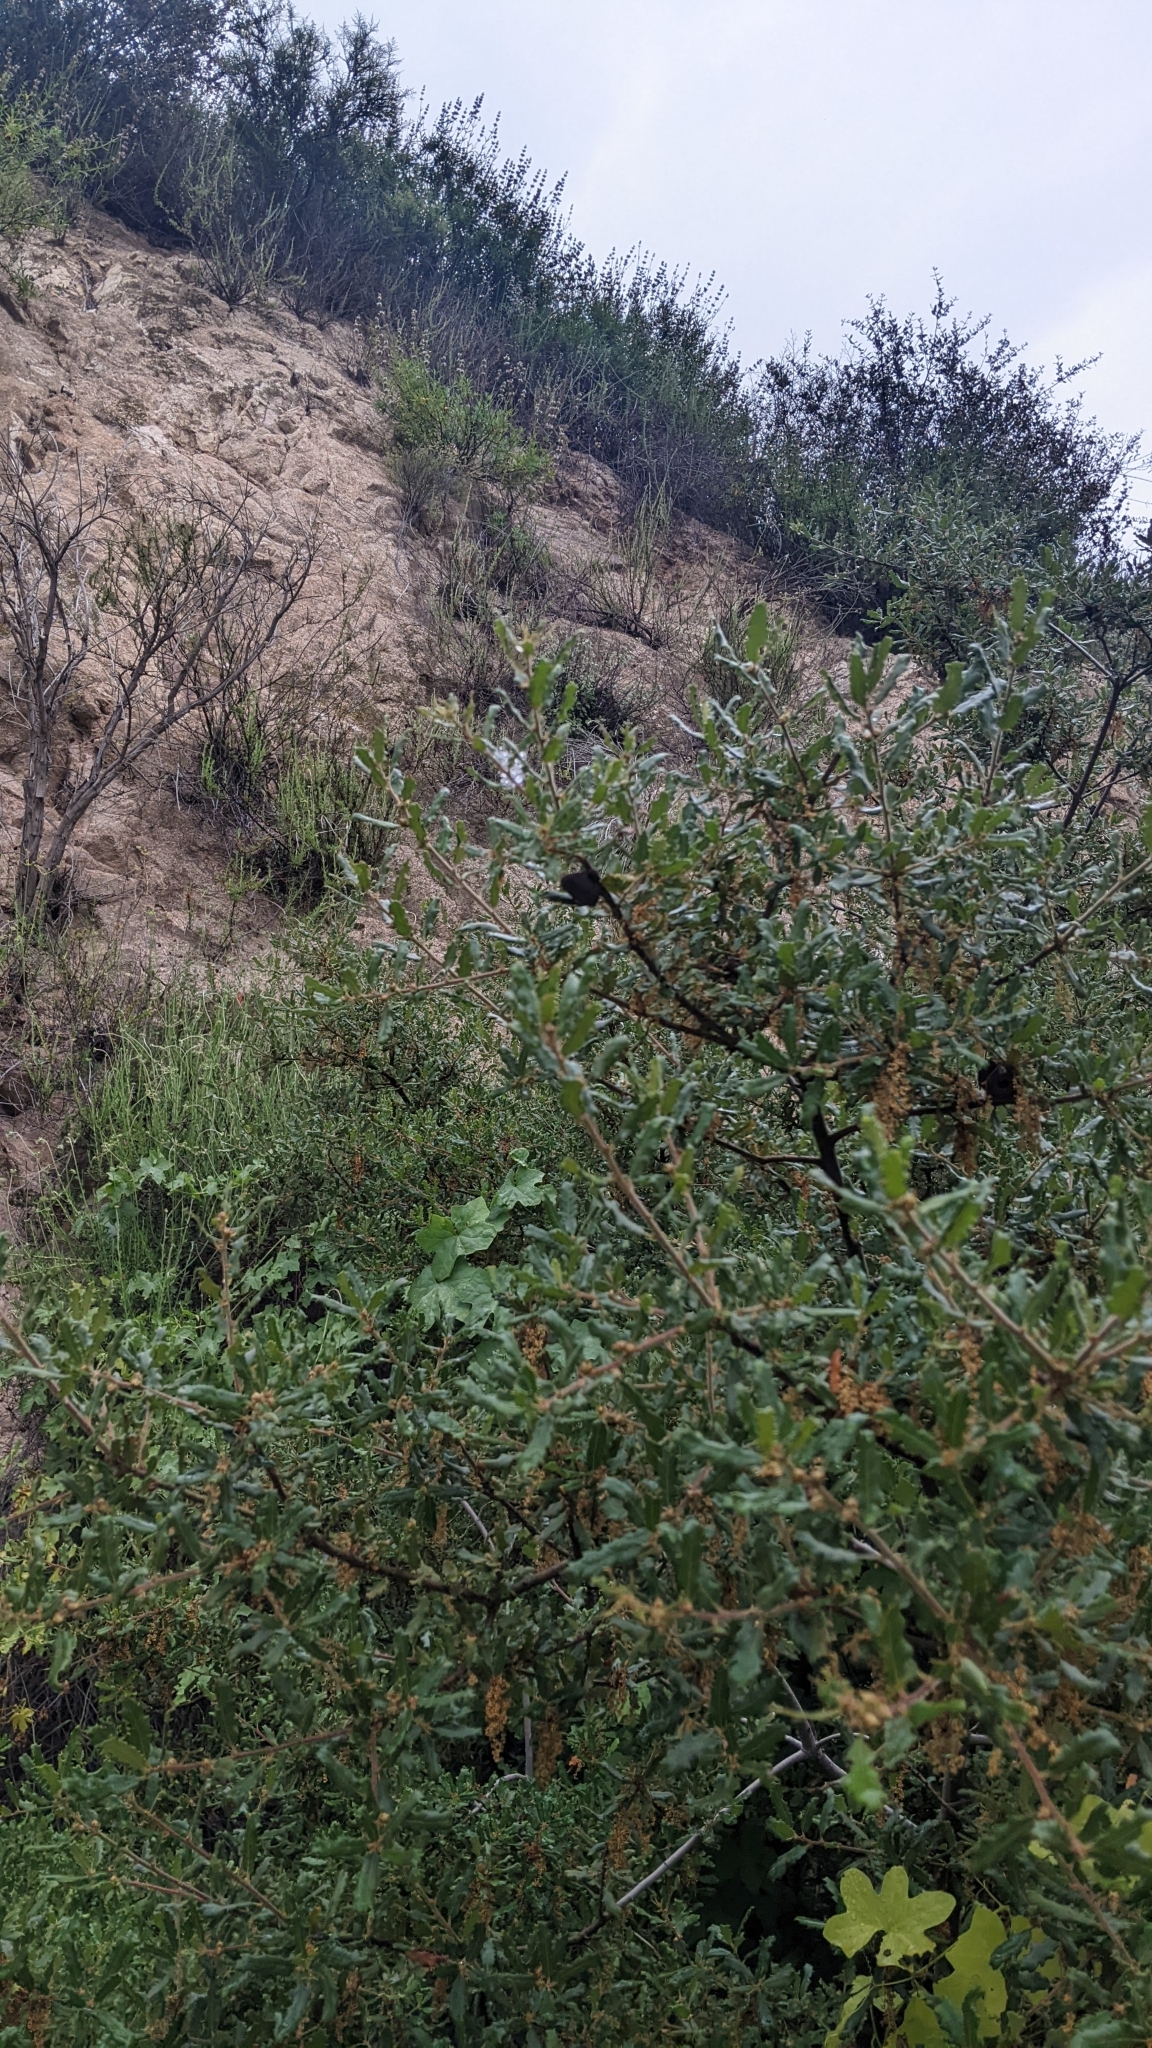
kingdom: Plantae
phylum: Tracheophyta
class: Magnoliopsida
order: Fagales
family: Fagaceae
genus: Quercus
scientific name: Quercus berberidifolia
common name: California scrub oak
